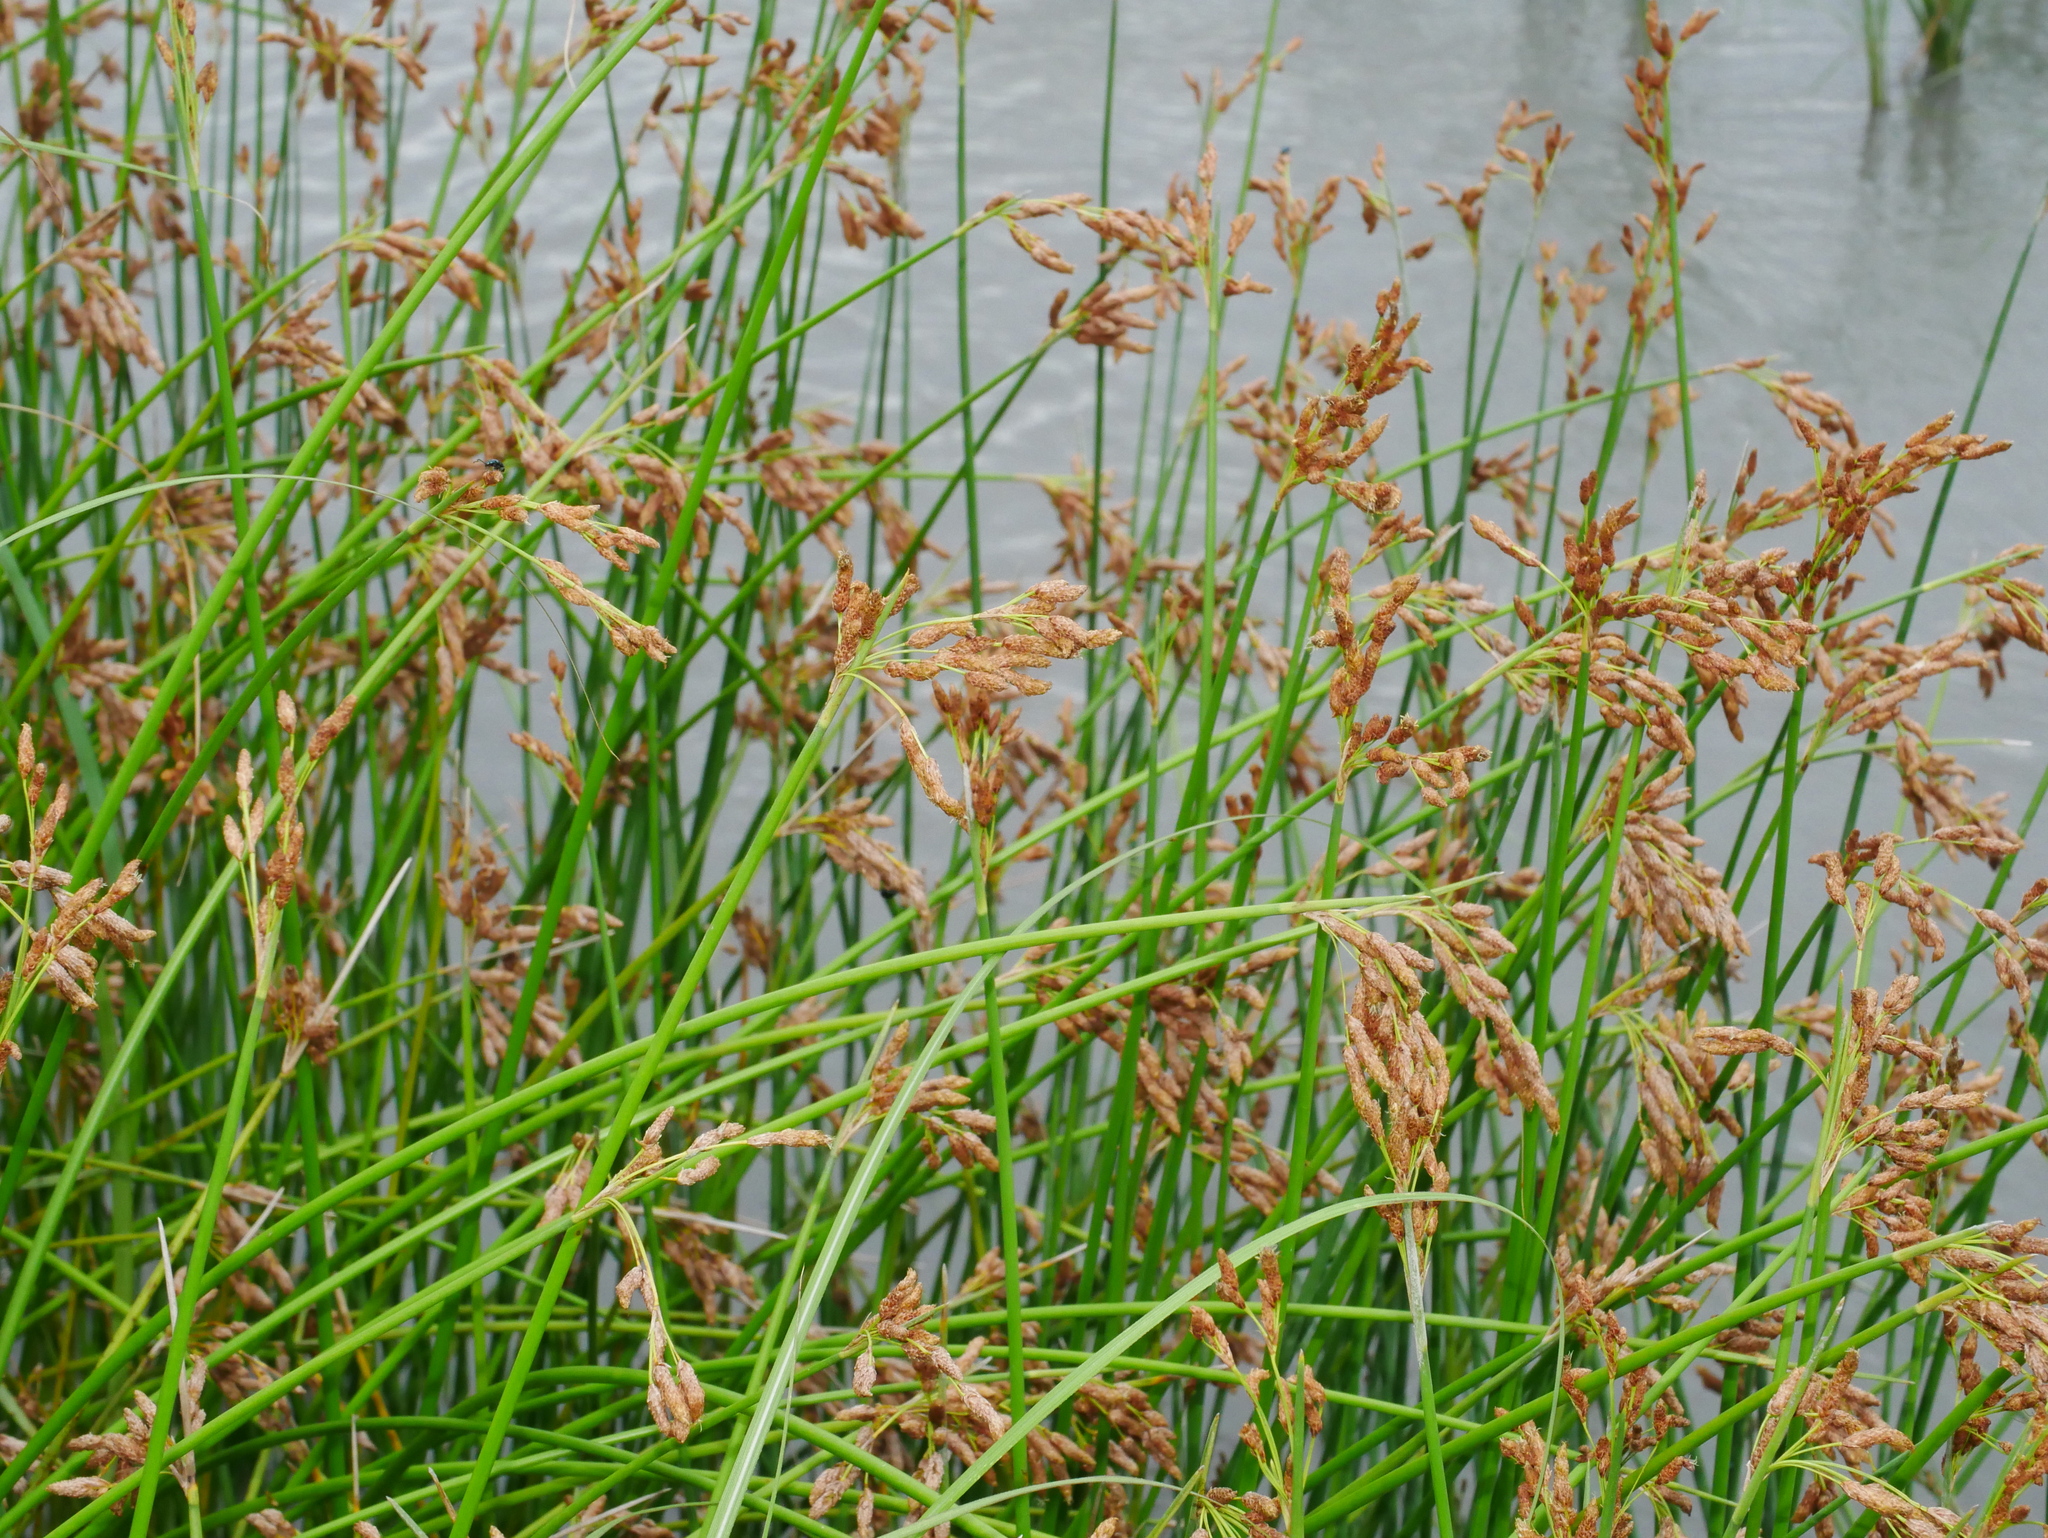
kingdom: Plantae
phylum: Tracheophyta
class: Liliopsida
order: Poales
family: Cyperaceae
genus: Schoenoplectus
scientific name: Schoenoplectus tabernaemontani
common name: Grey club-rush
